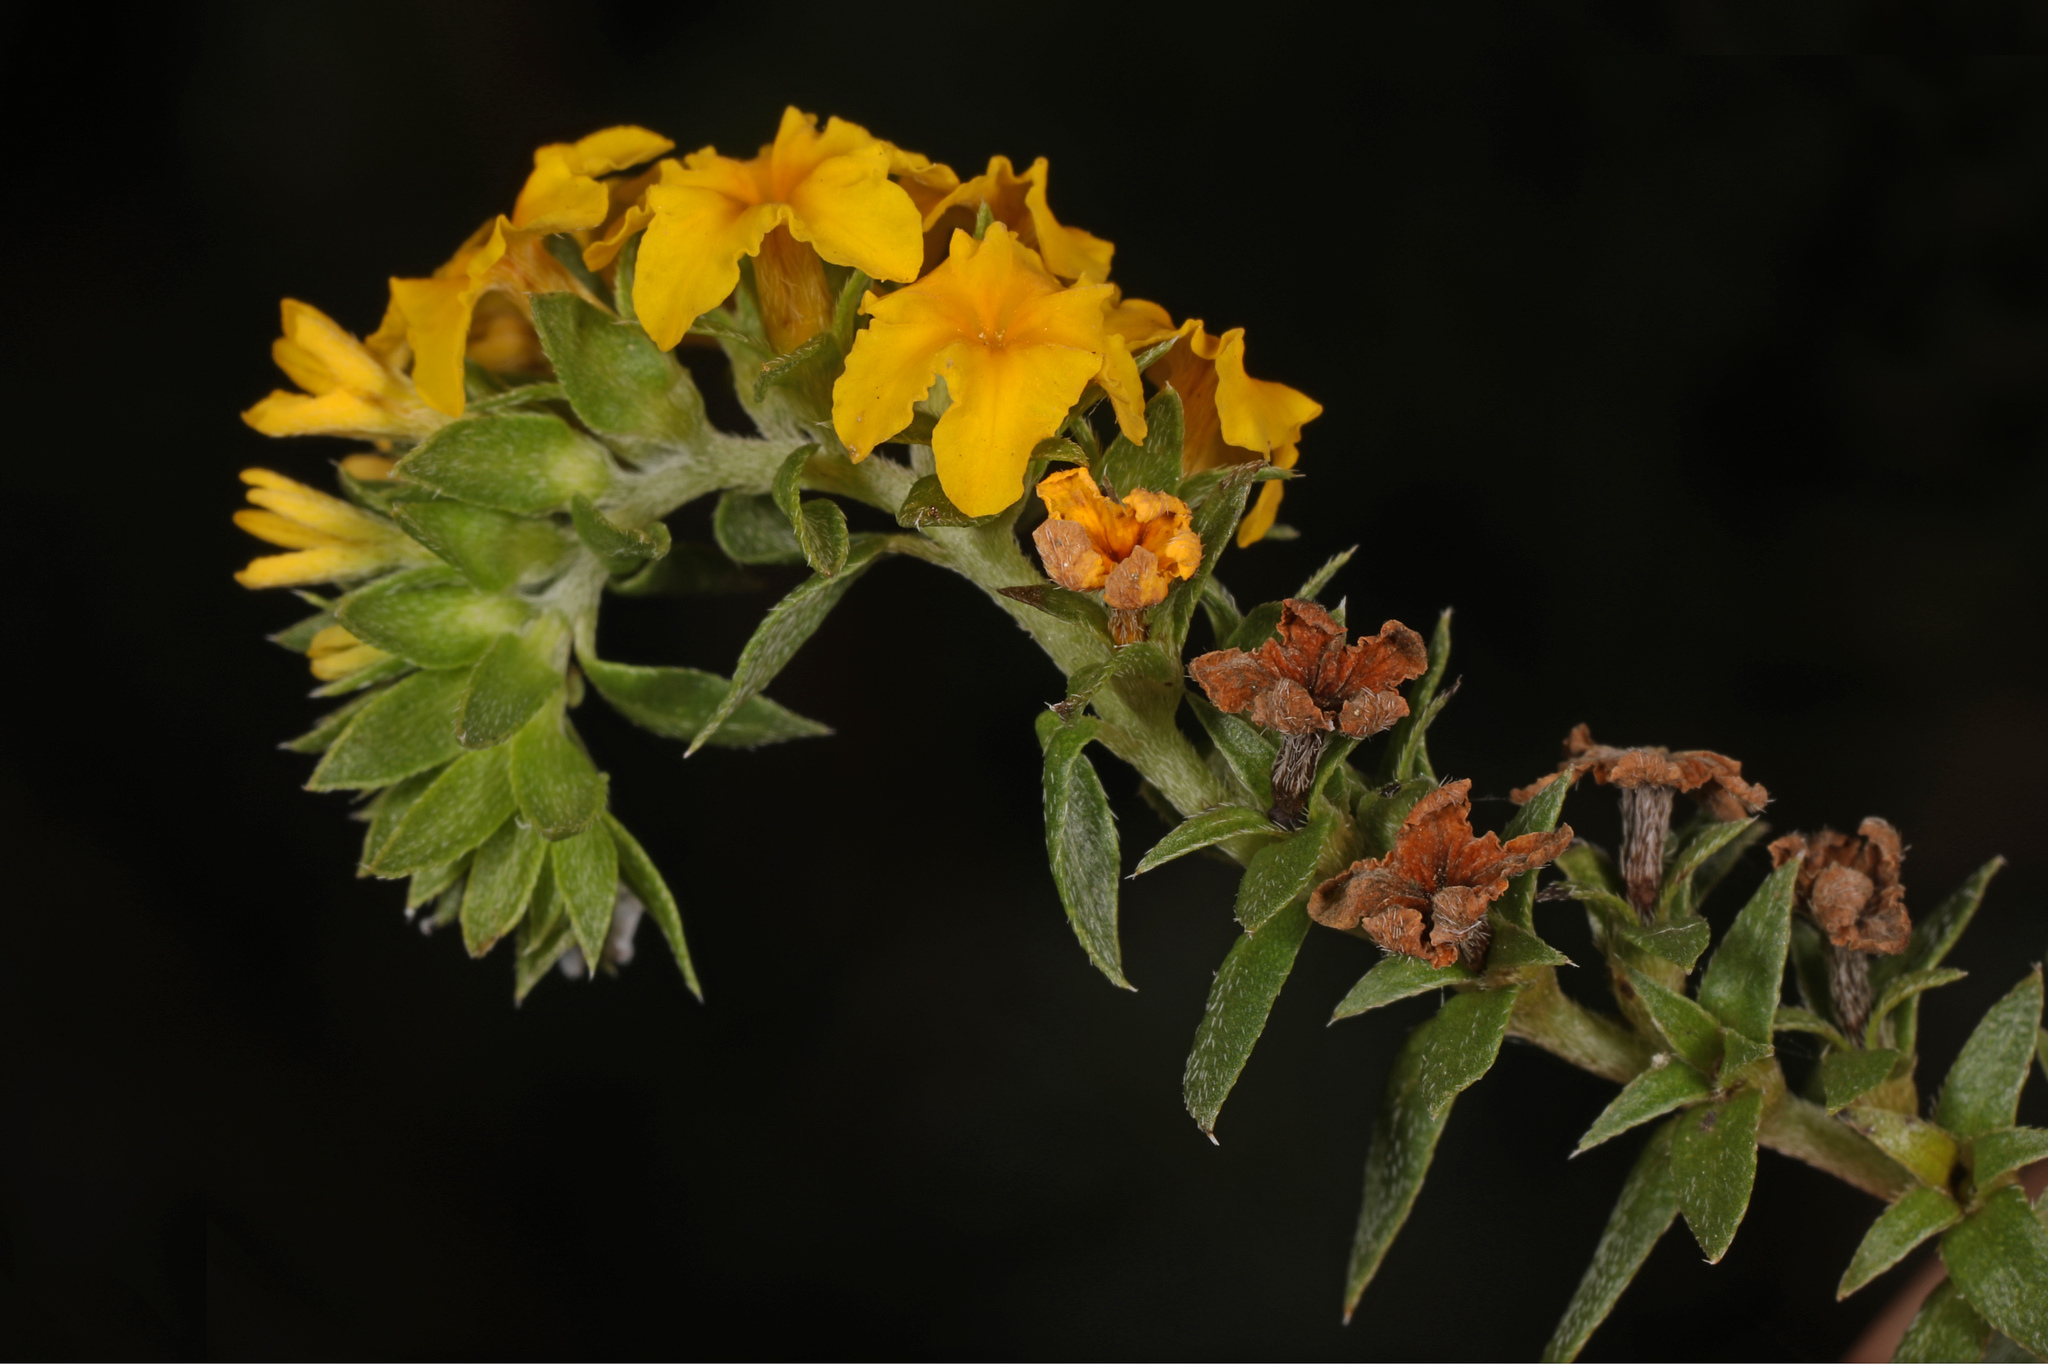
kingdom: Plantae
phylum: Tracheophyta
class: Magnoliopsida
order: Boraginales
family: Heliotropiaceae
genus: Euploca
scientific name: Euploca polyphylla
